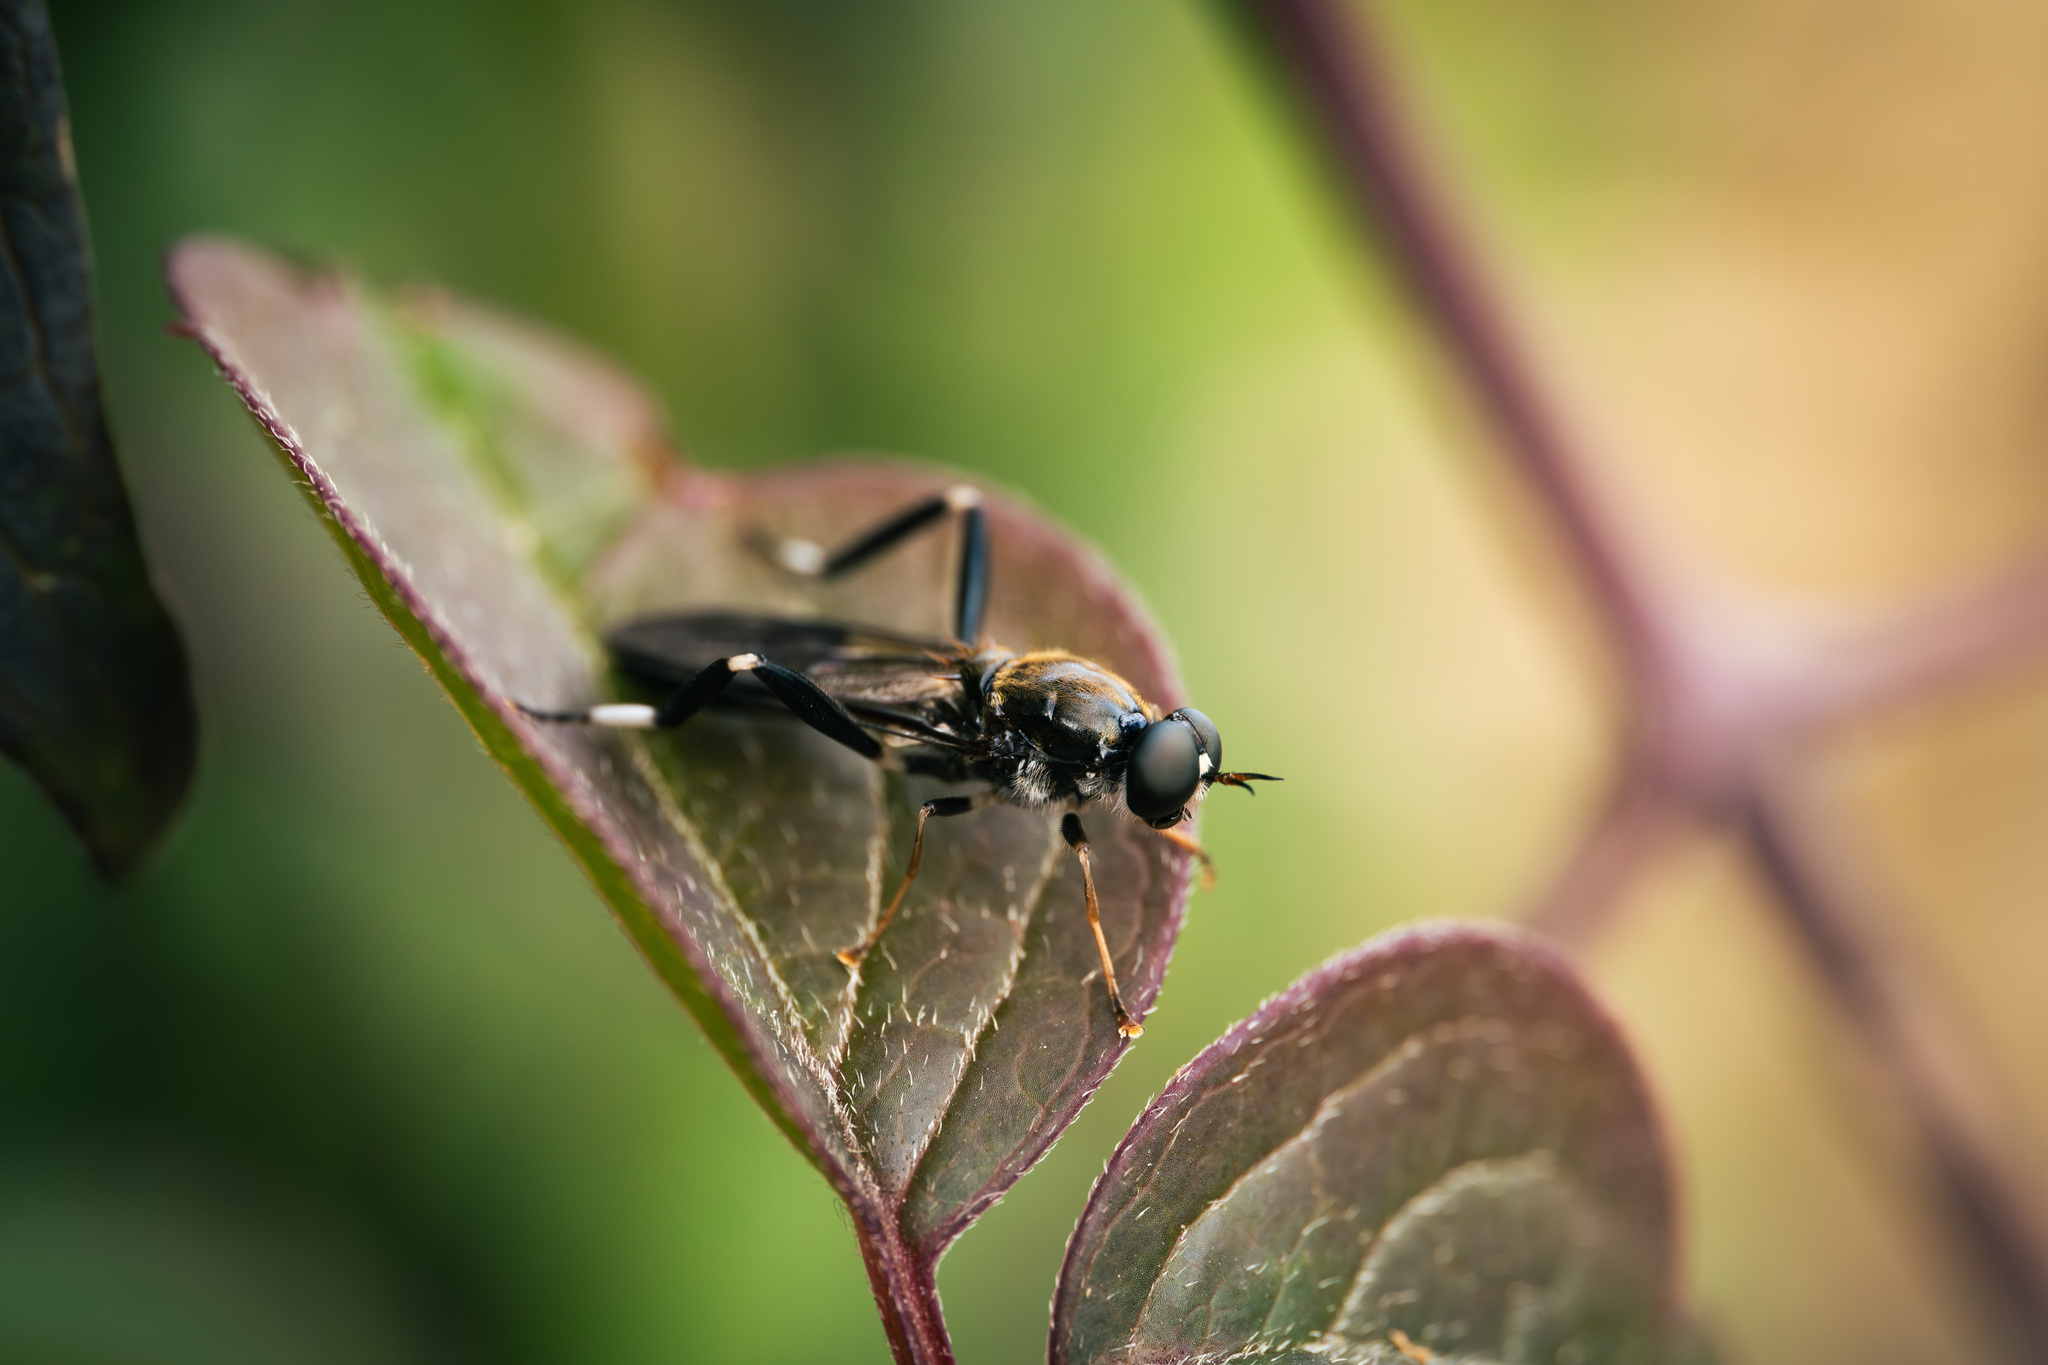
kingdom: Animalia
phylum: Arthropoda
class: Insecta
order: Diptera
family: Stratiomyidae
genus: Exaireta
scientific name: Exaireta spinigera
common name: Blue soldier fly
